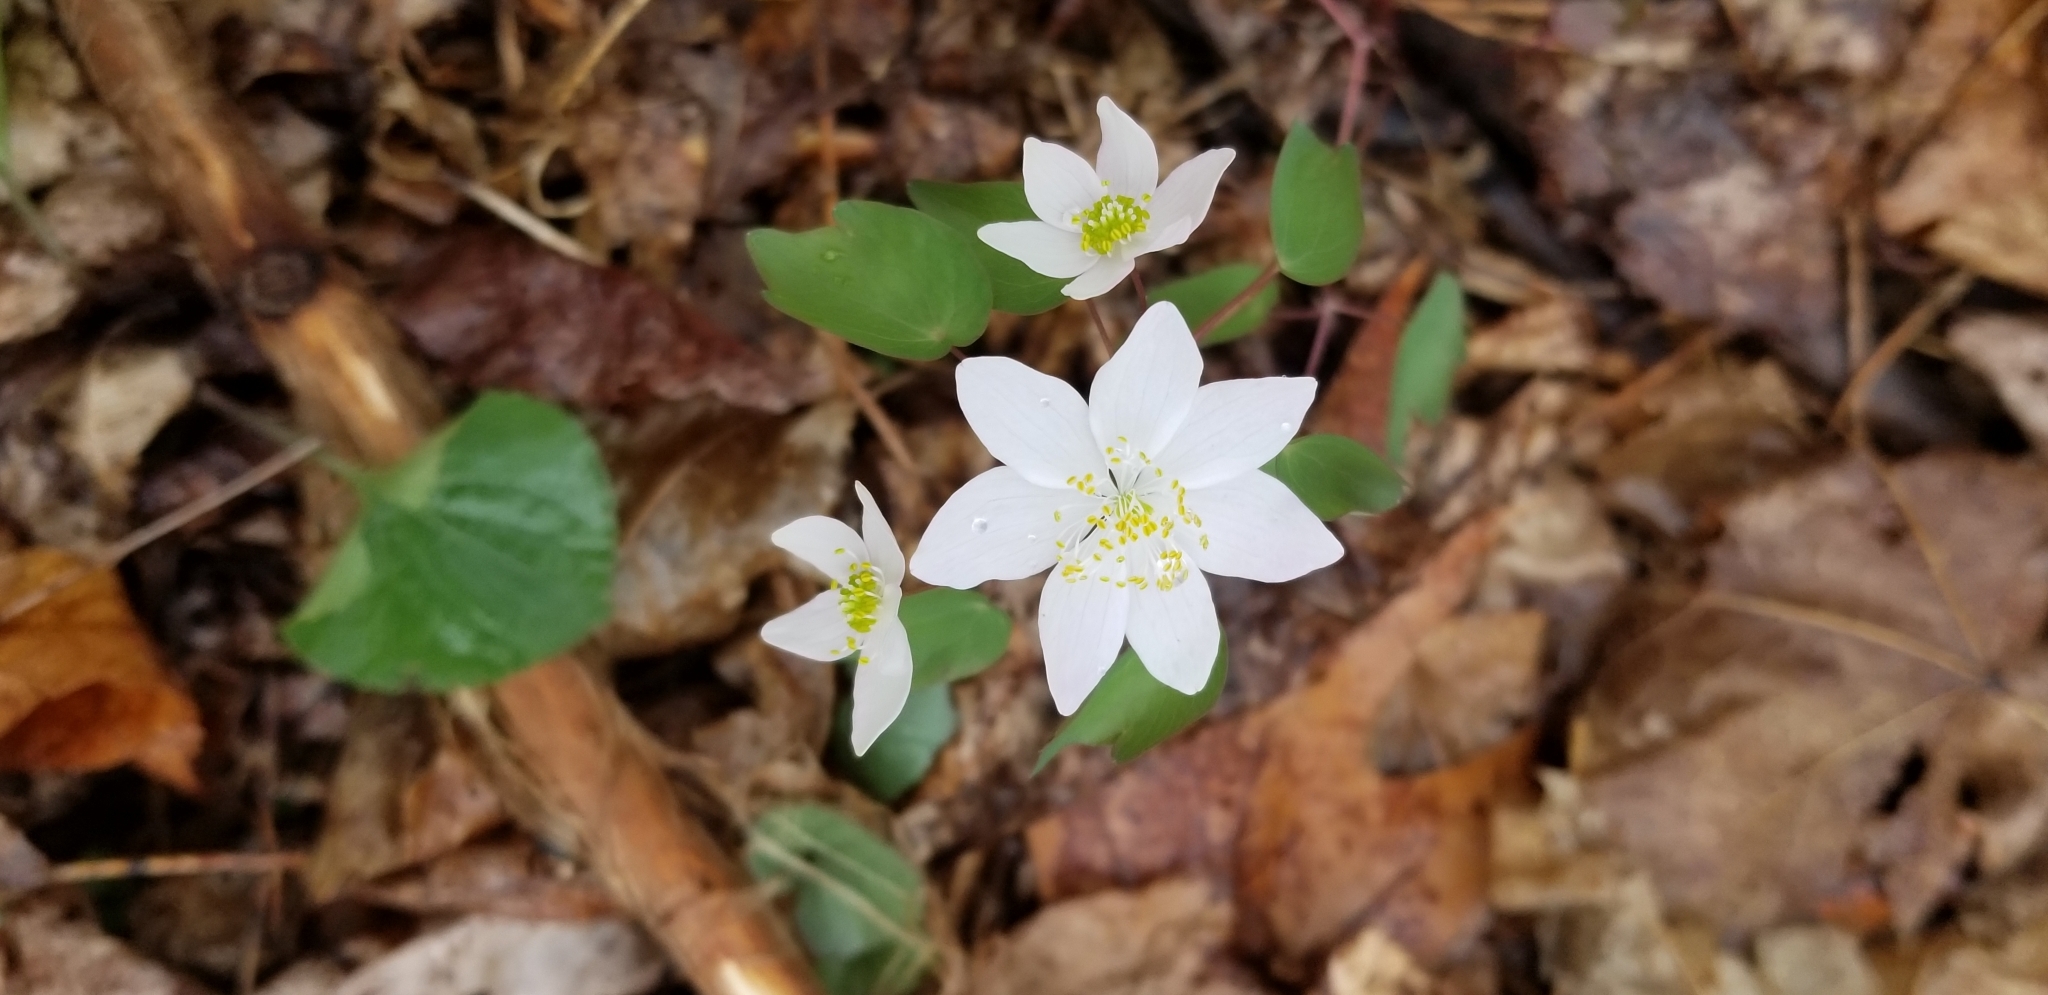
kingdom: Plantae
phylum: Tracheophyta
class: Magnoliopsida
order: Ranunculales
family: Ranunculaceae
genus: Thalictrum
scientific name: Thalictrum thalictroides
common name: Rue-anemone
